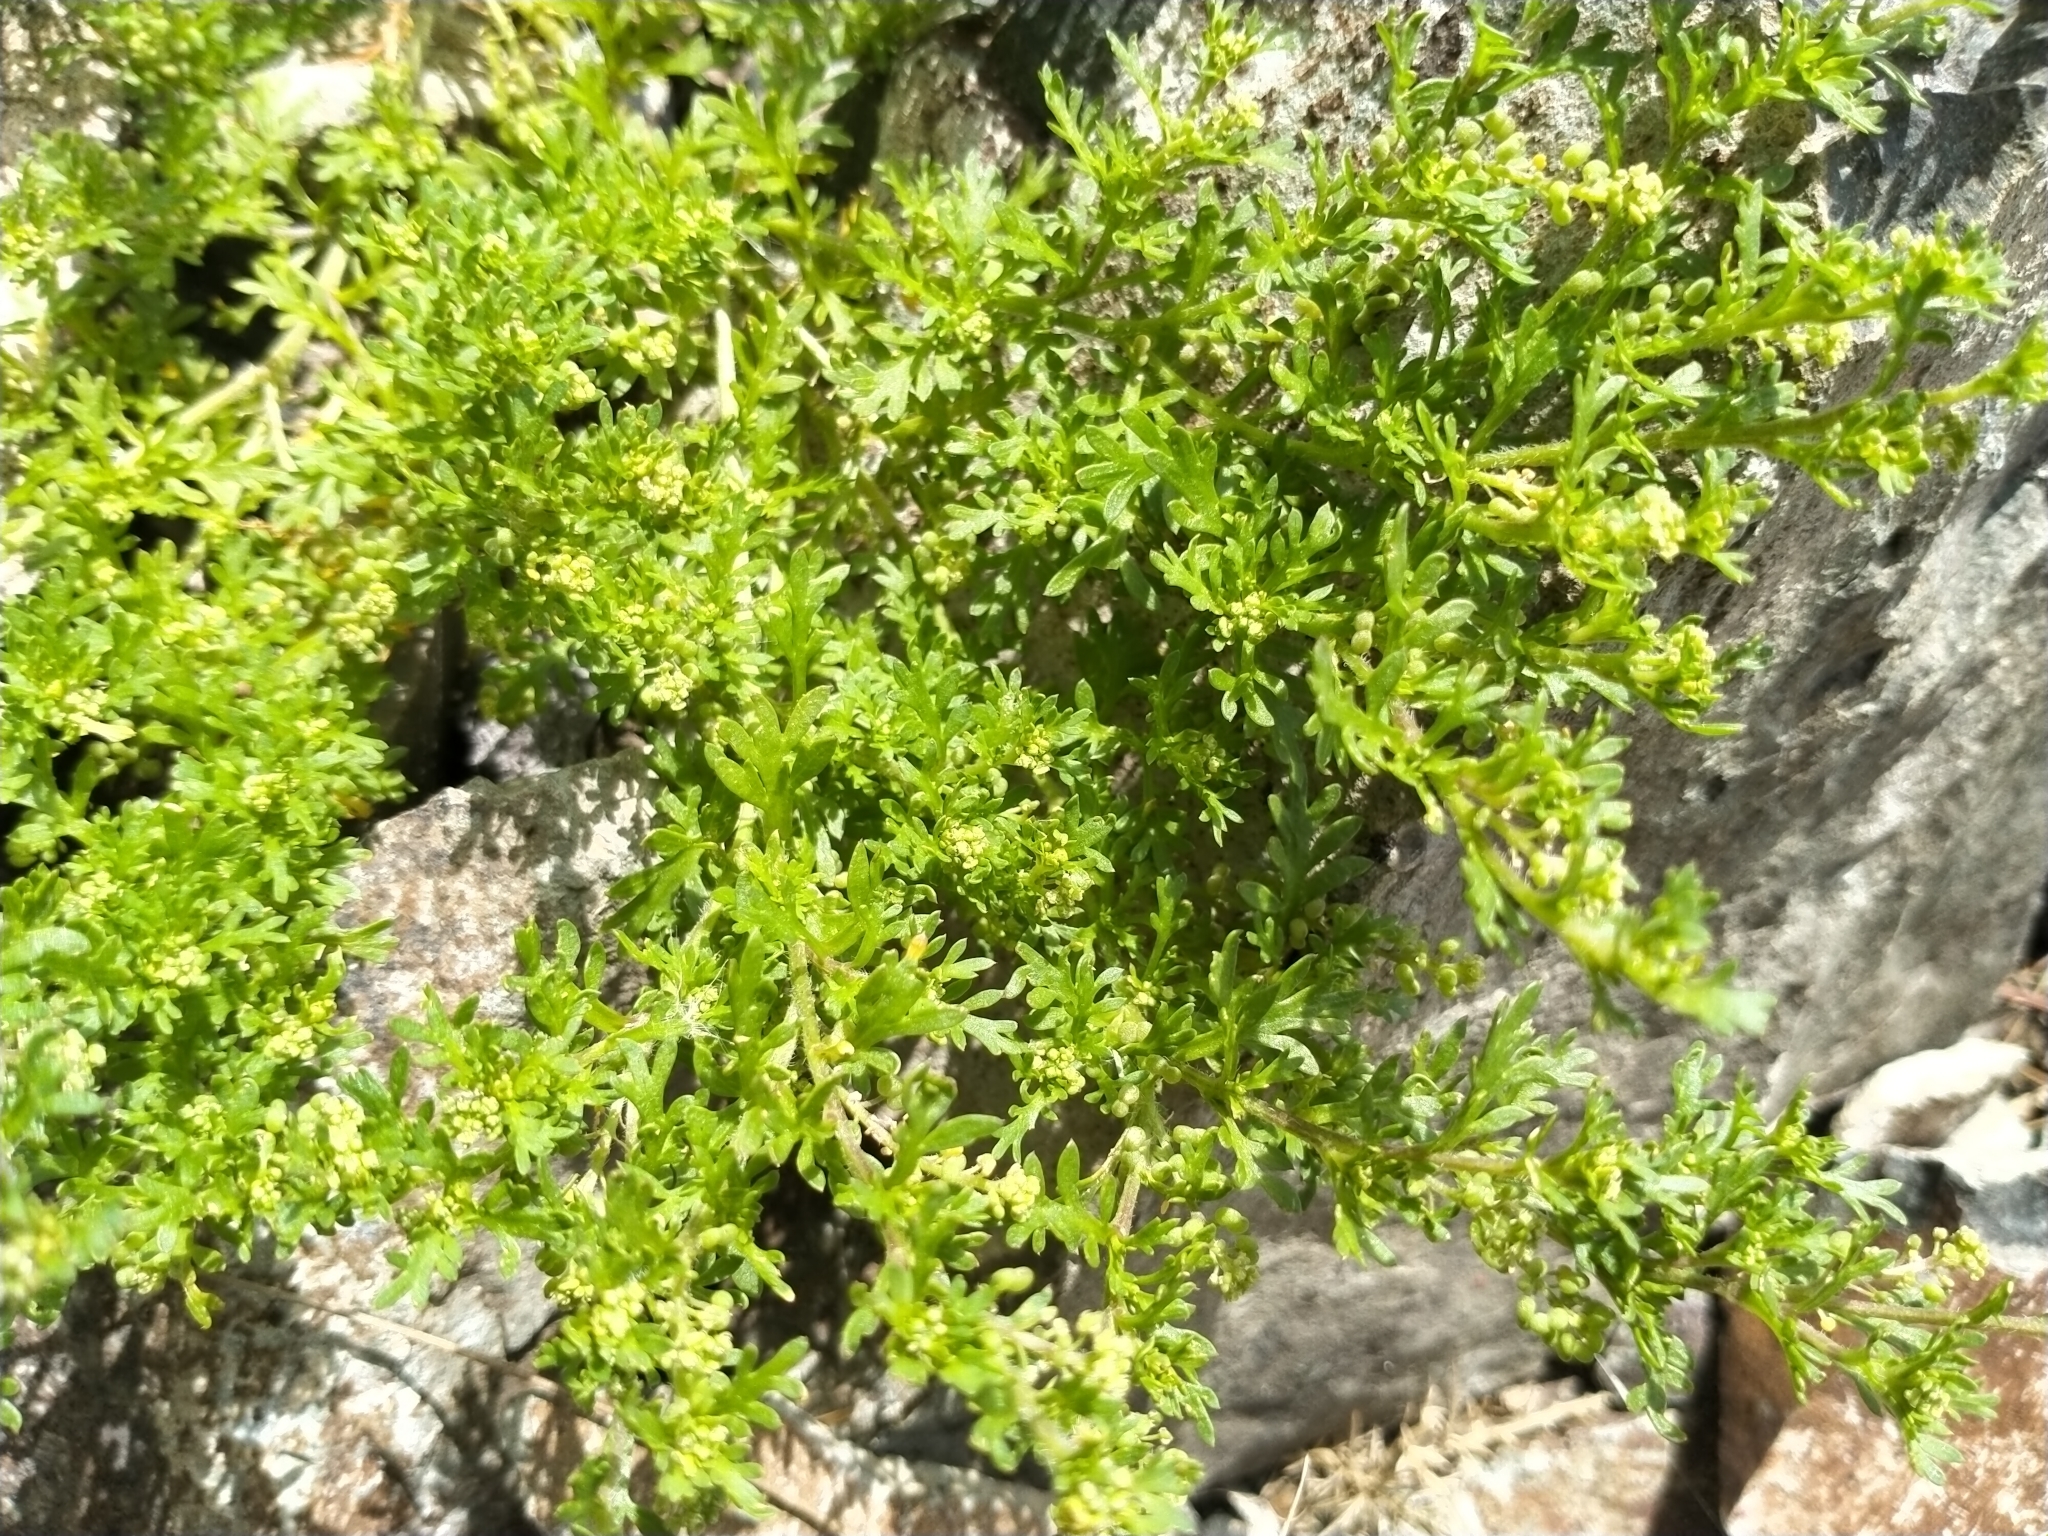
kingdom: Plantae
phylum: Tracheophyta
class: Magnoliopsida
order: Brassicales
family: Brassicaceae
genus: Lepidium
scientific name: Lepidium didymum
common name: Lesser swinecress
